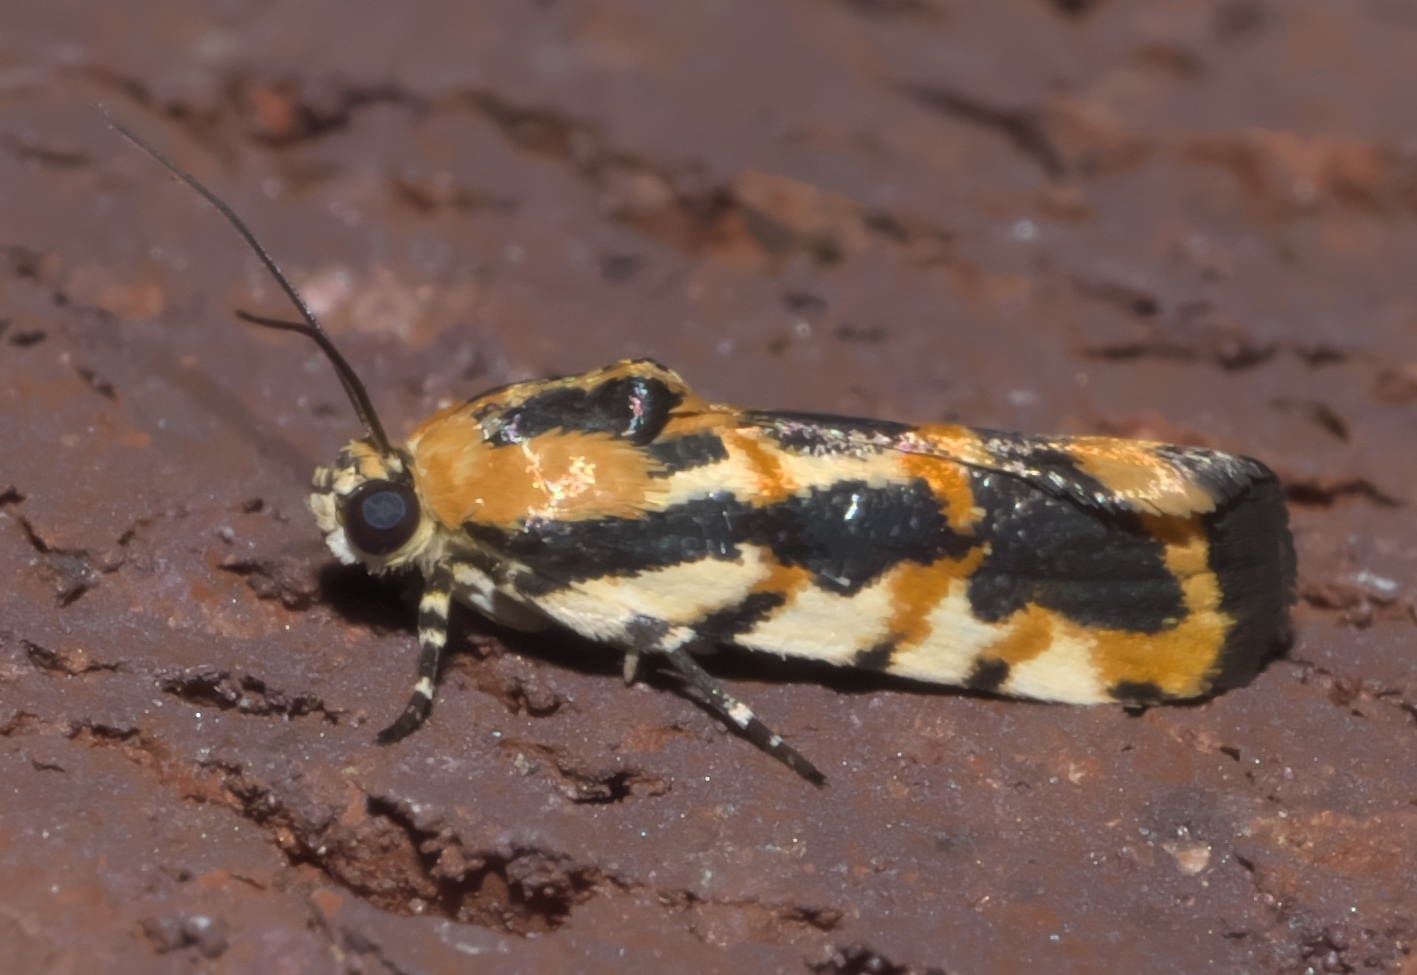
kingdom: Animalia
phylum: Arthropoda
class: Insecta
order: Lepidoptera
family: Noctuidae
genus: Acontia
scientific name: Acontia leo
